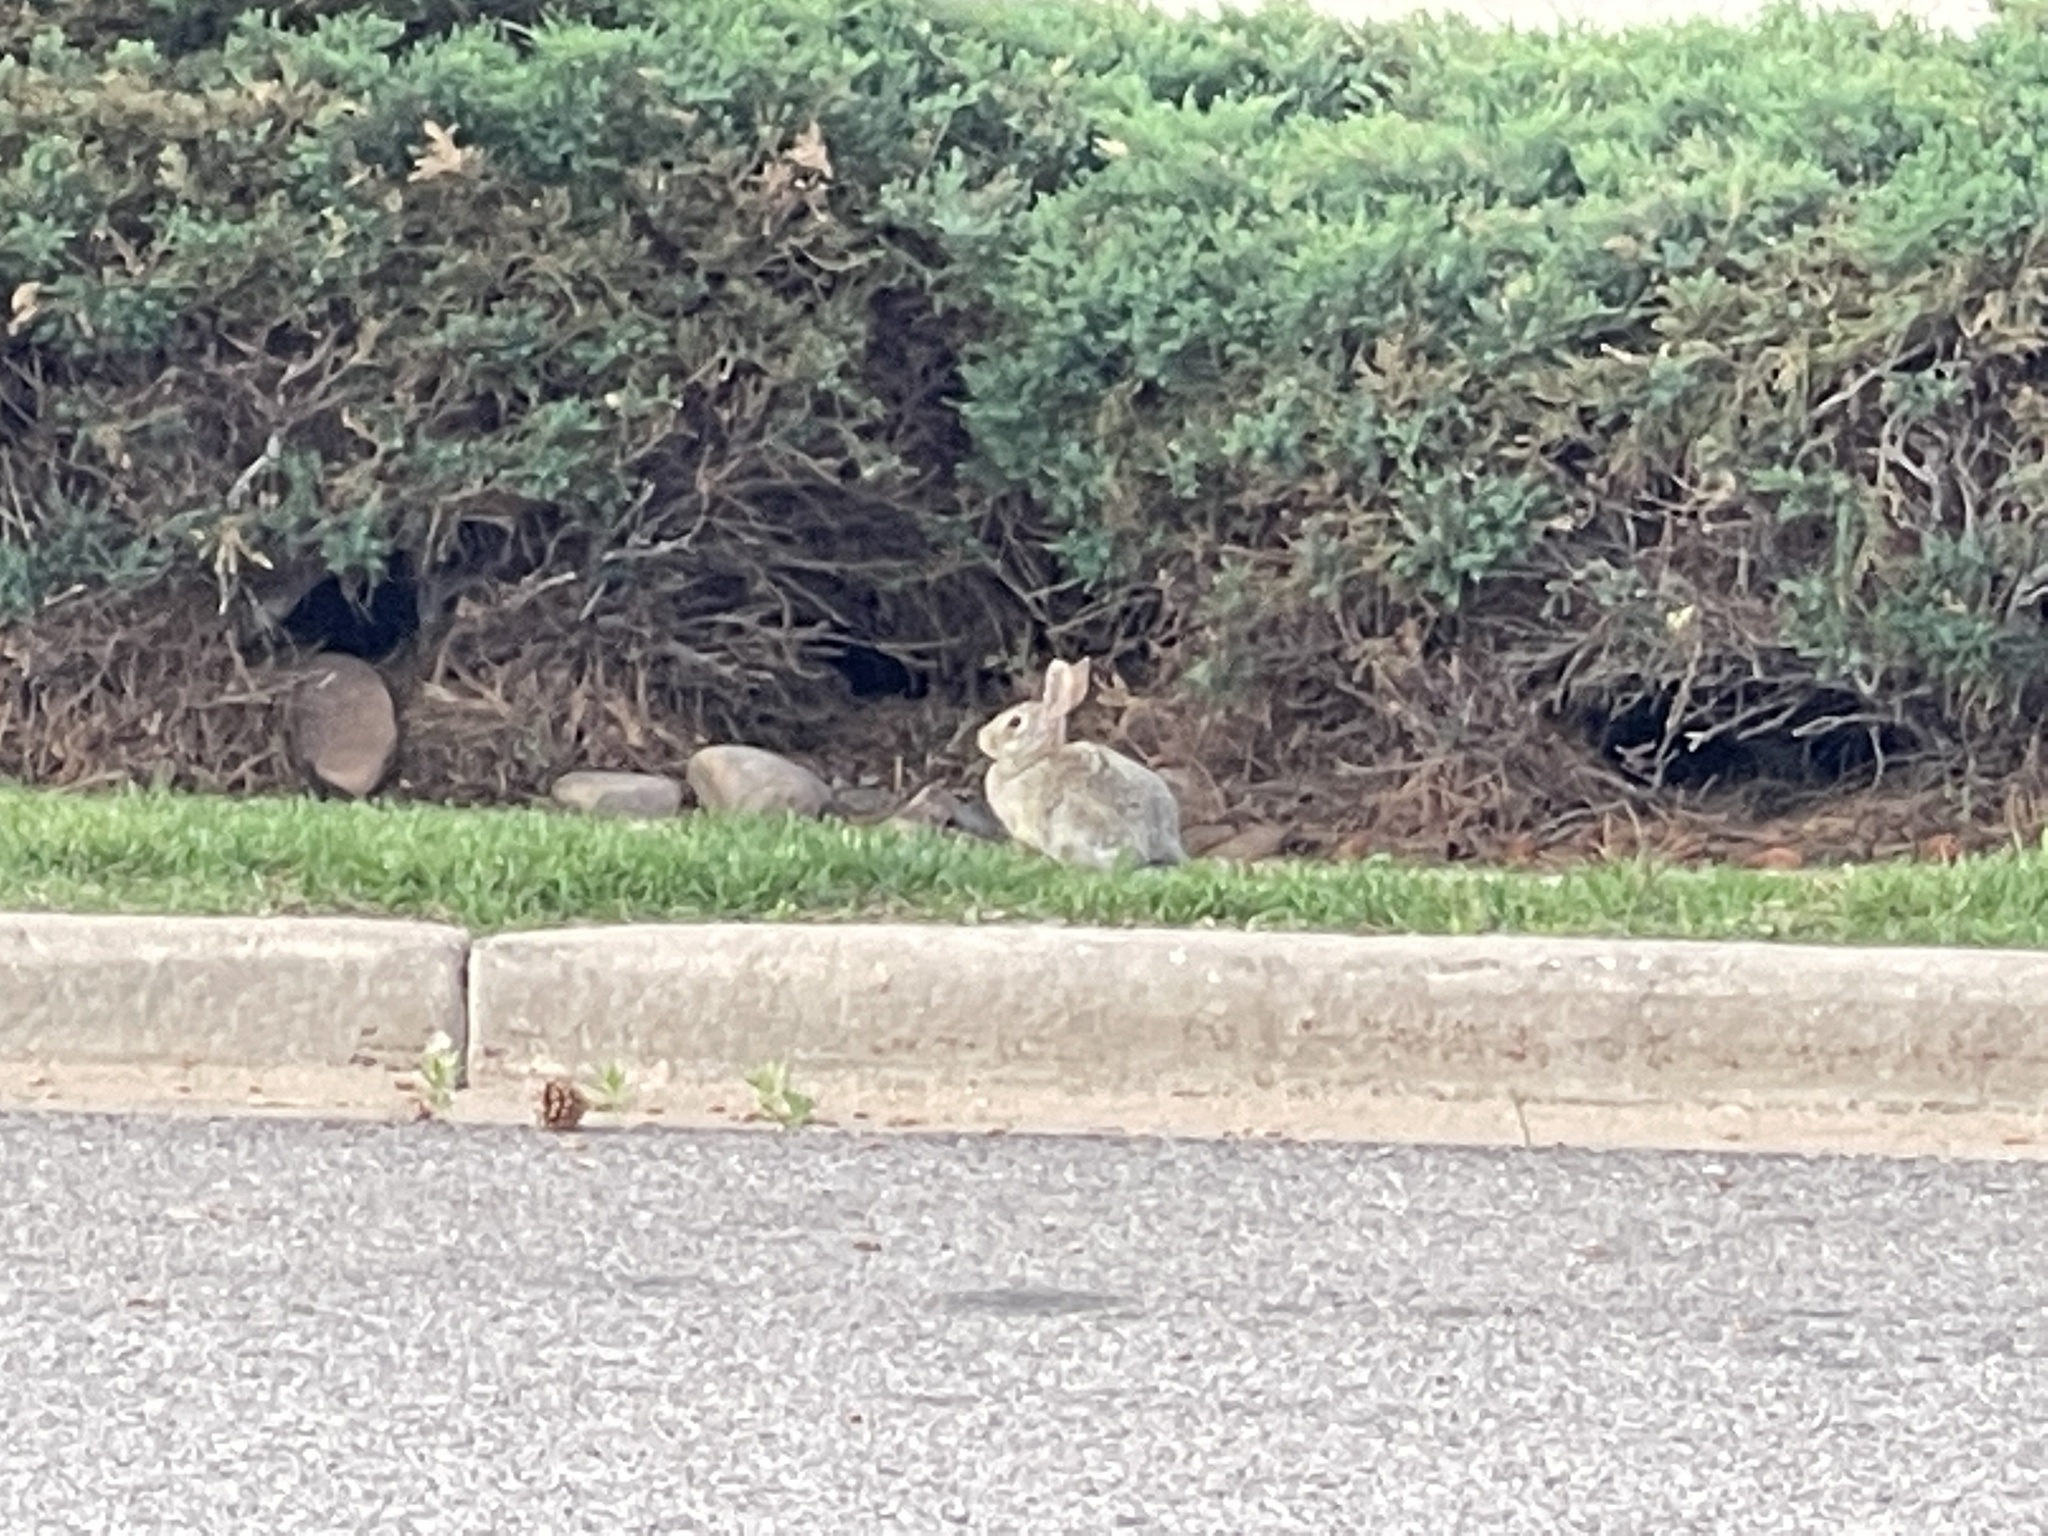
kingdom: Animalia
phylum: Chordata
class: Mammalia
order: Lagomorpha
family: Leporidae
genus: Sylvilagus
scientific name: Sylvilagus nuttallii
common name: Mountain cottontail
